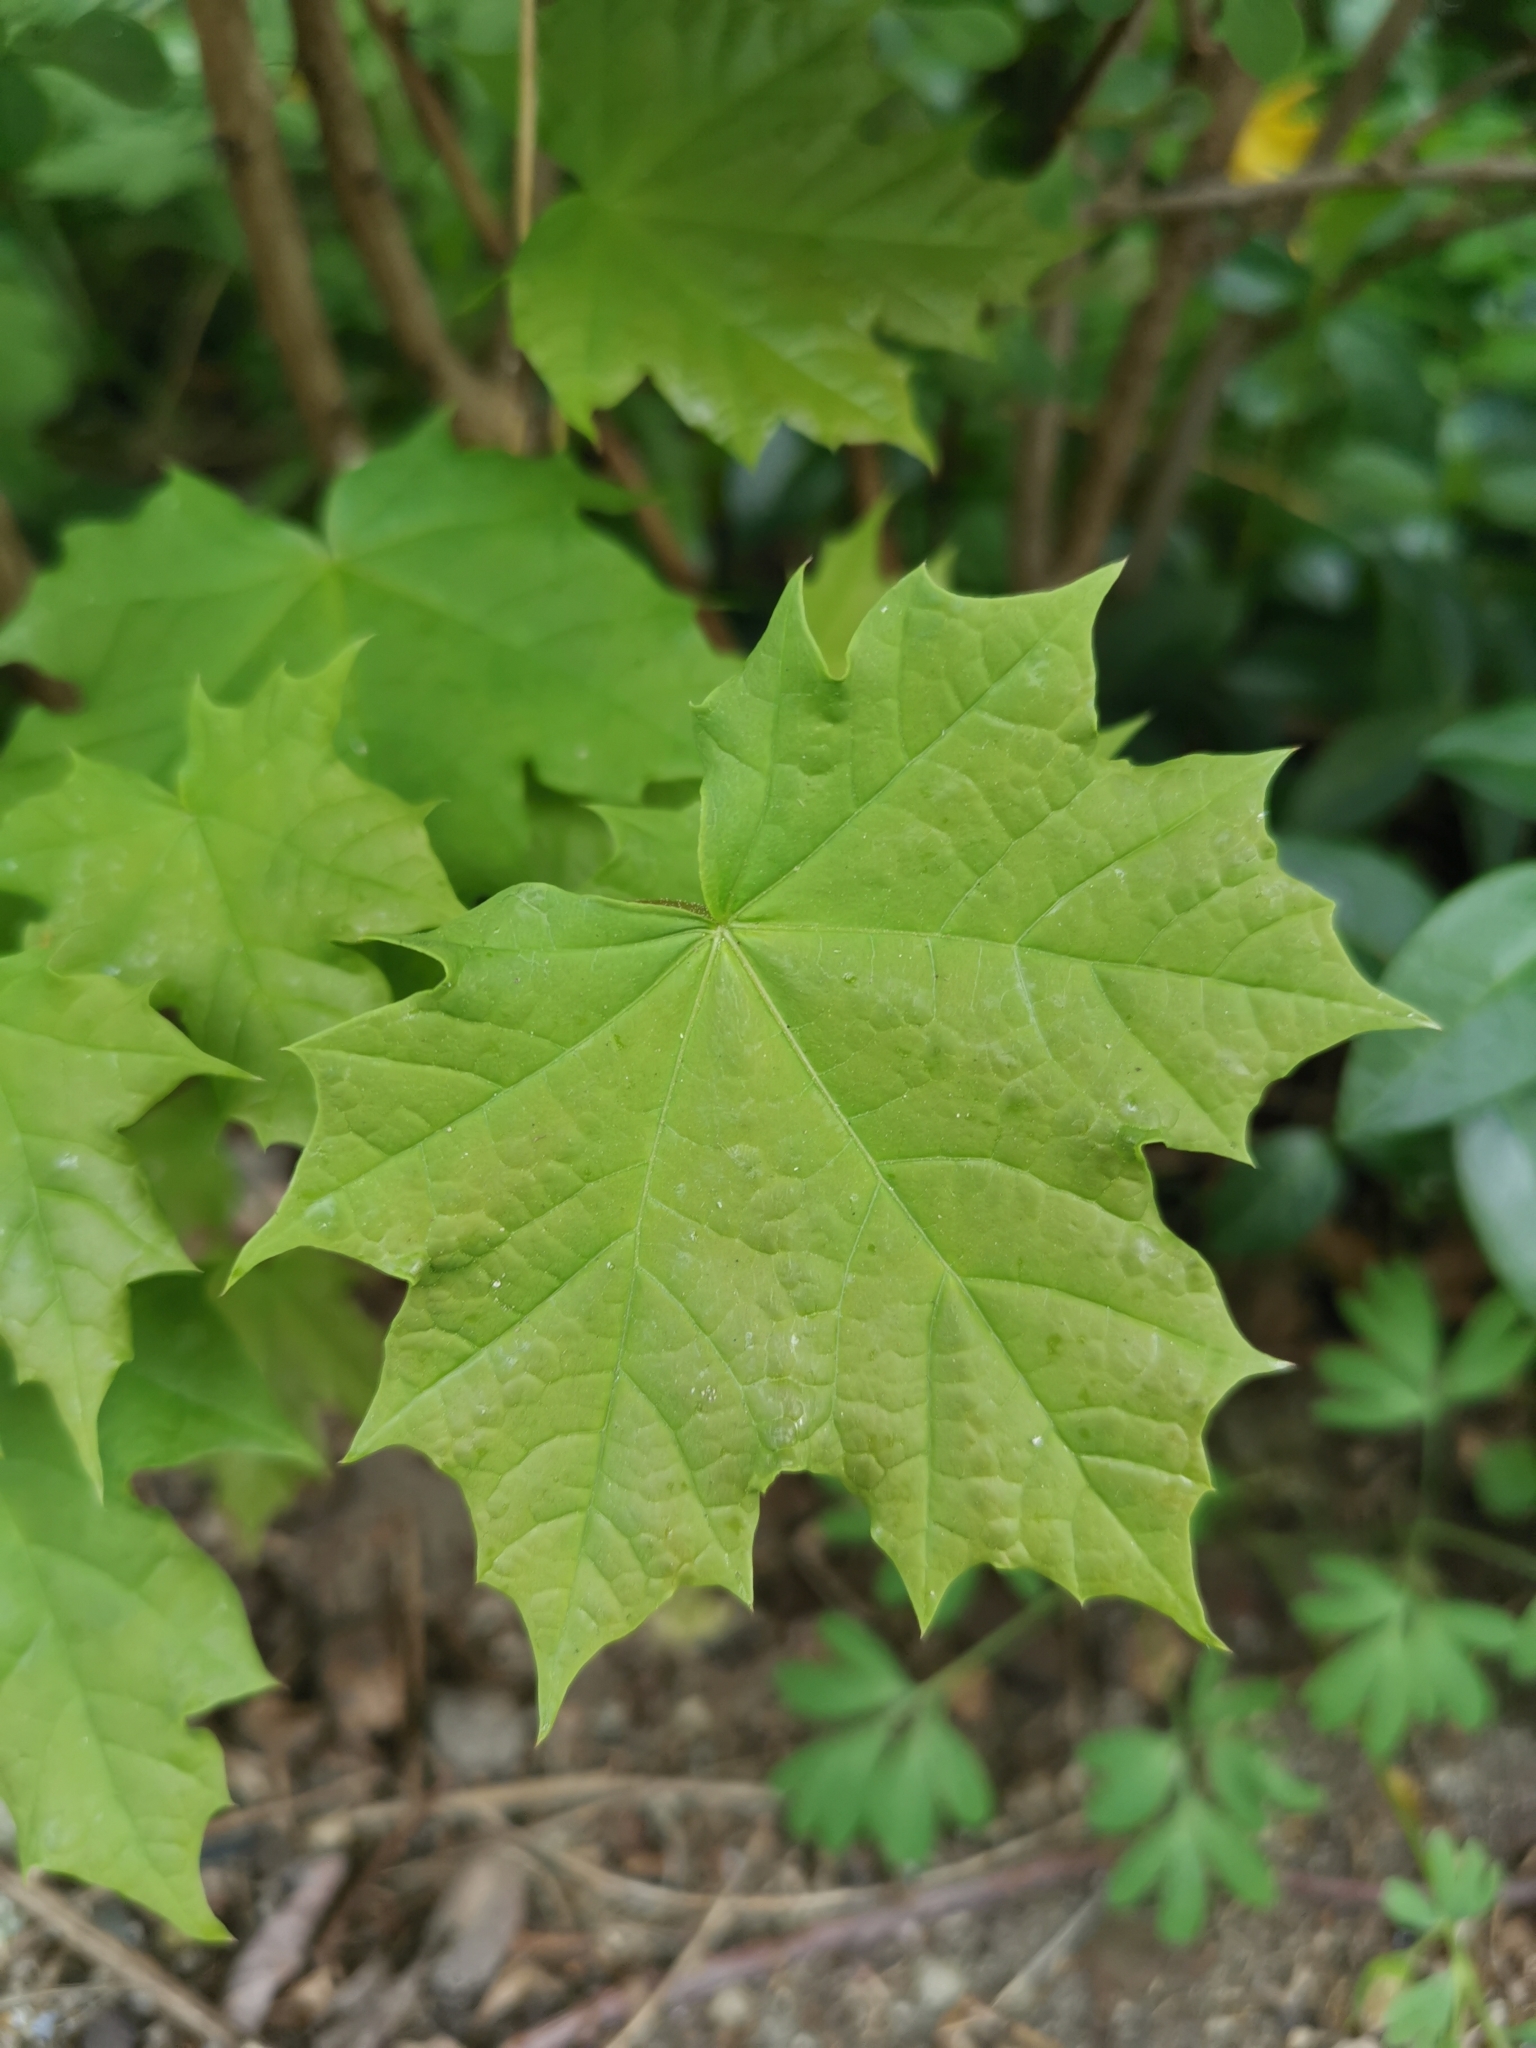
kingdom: Plantae
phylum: Tracheophyta
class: Magnoliopsida
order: Sapindales
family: Sapindaceae
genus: Acer
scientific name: Acer platanoides
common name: Norway maple
